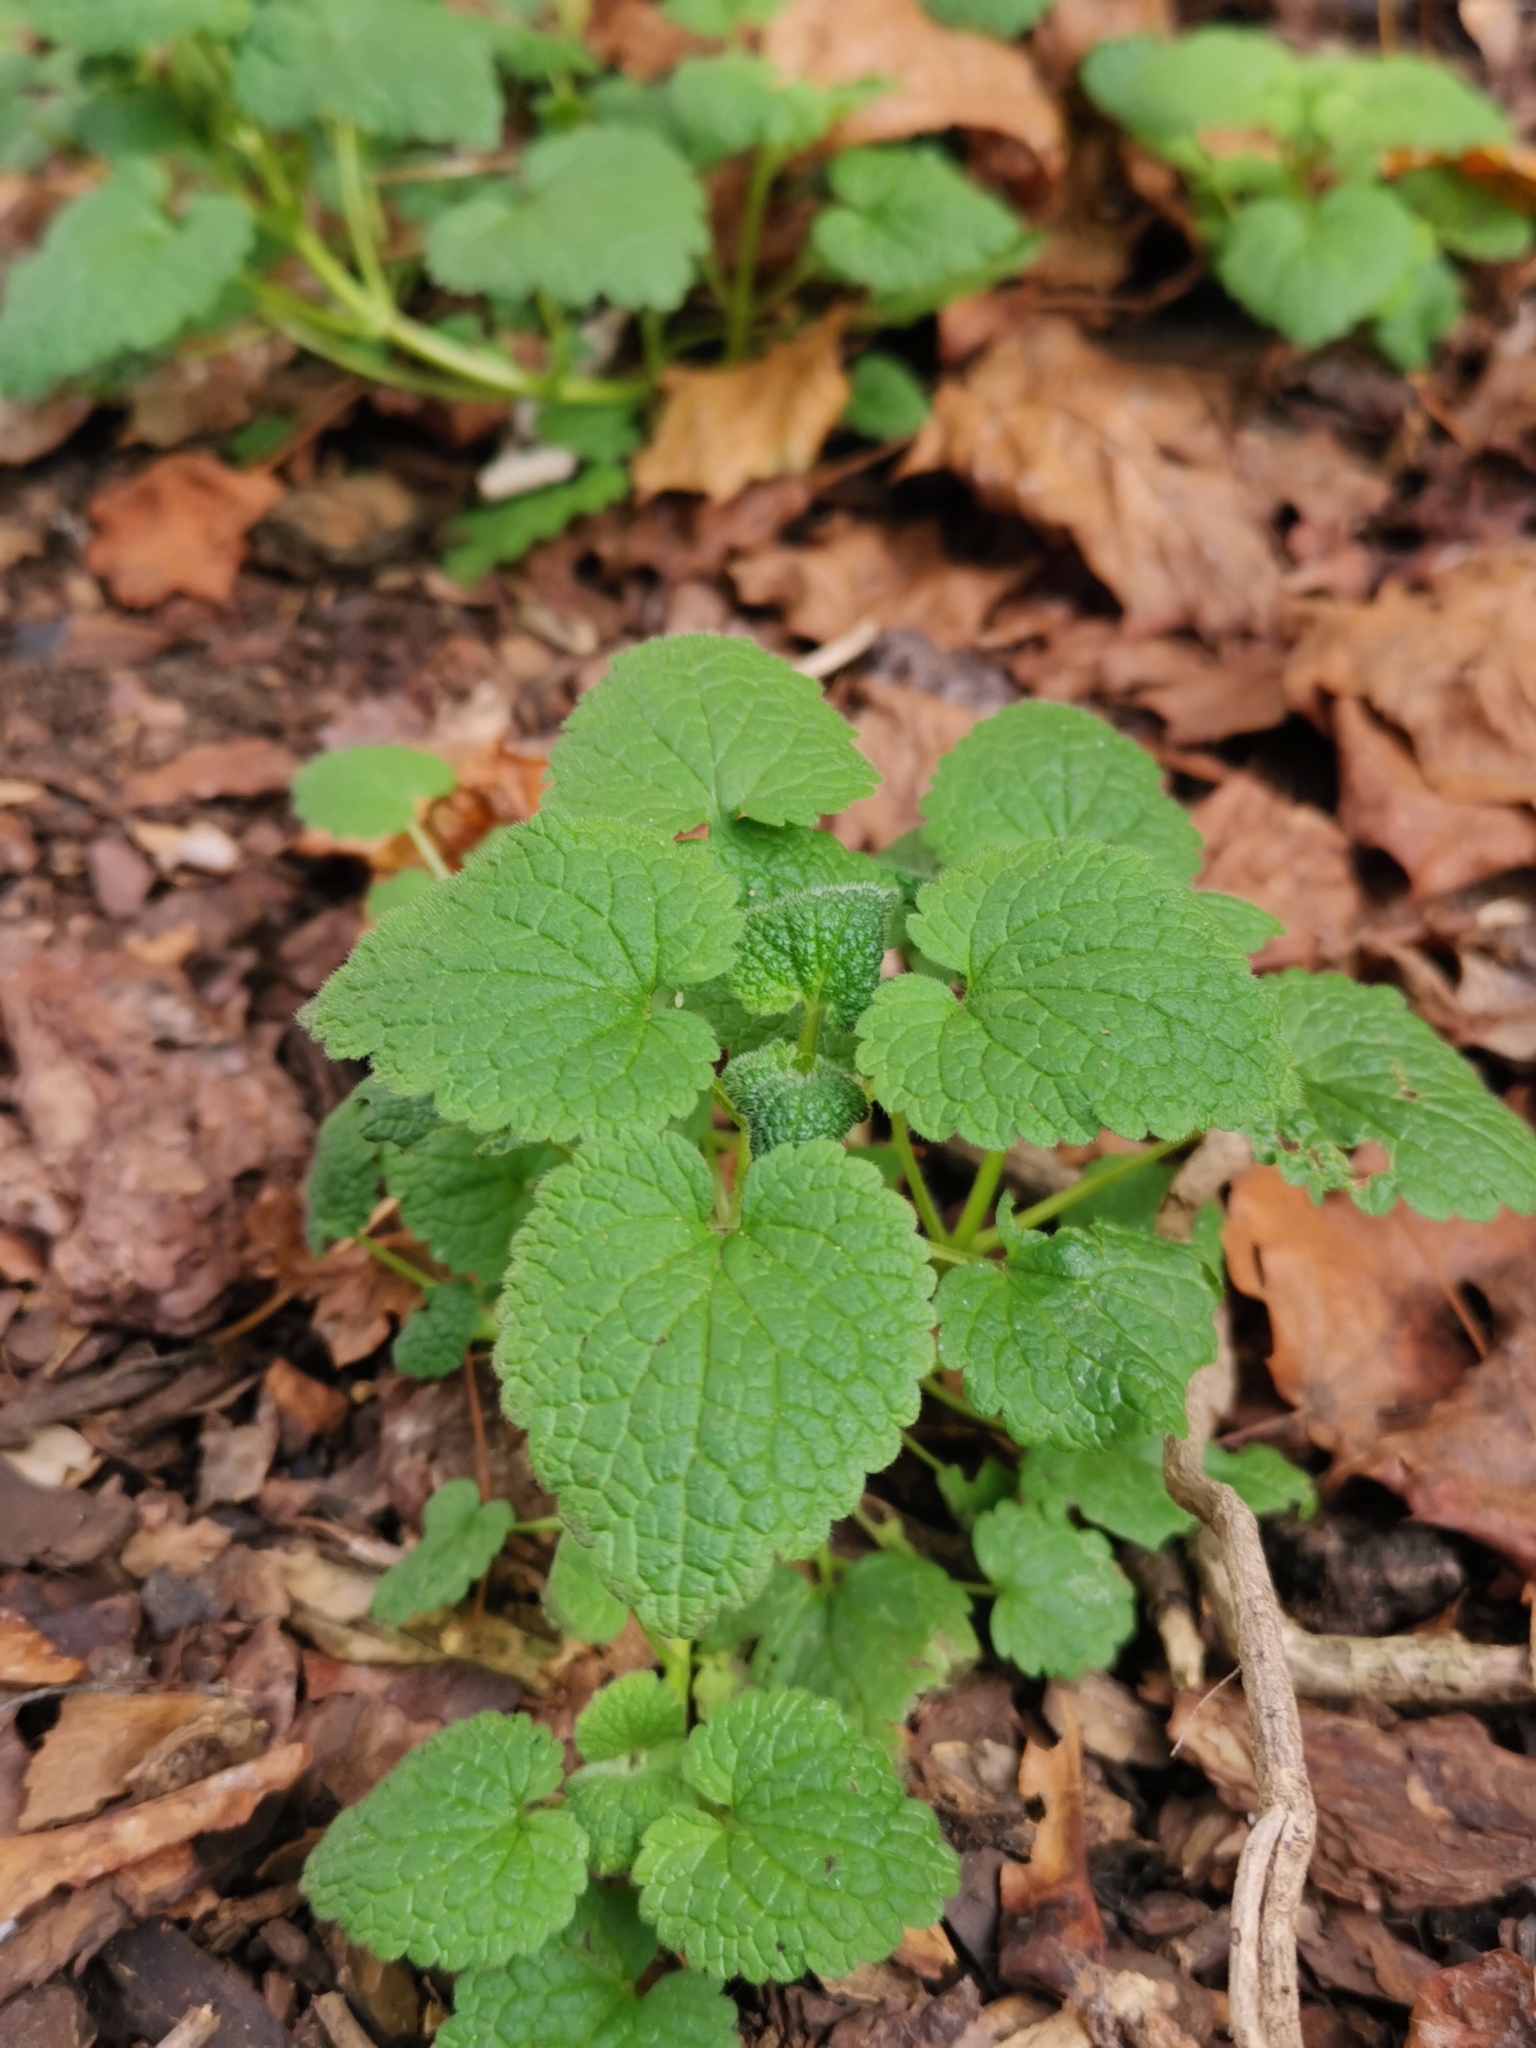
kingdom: Plantae
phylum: Tracheophyta
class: Magnoliopsida
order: Lamiales
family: Lamiaceae
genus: Lamium
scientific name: Lamium purpureum
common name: Red dead-nettle
